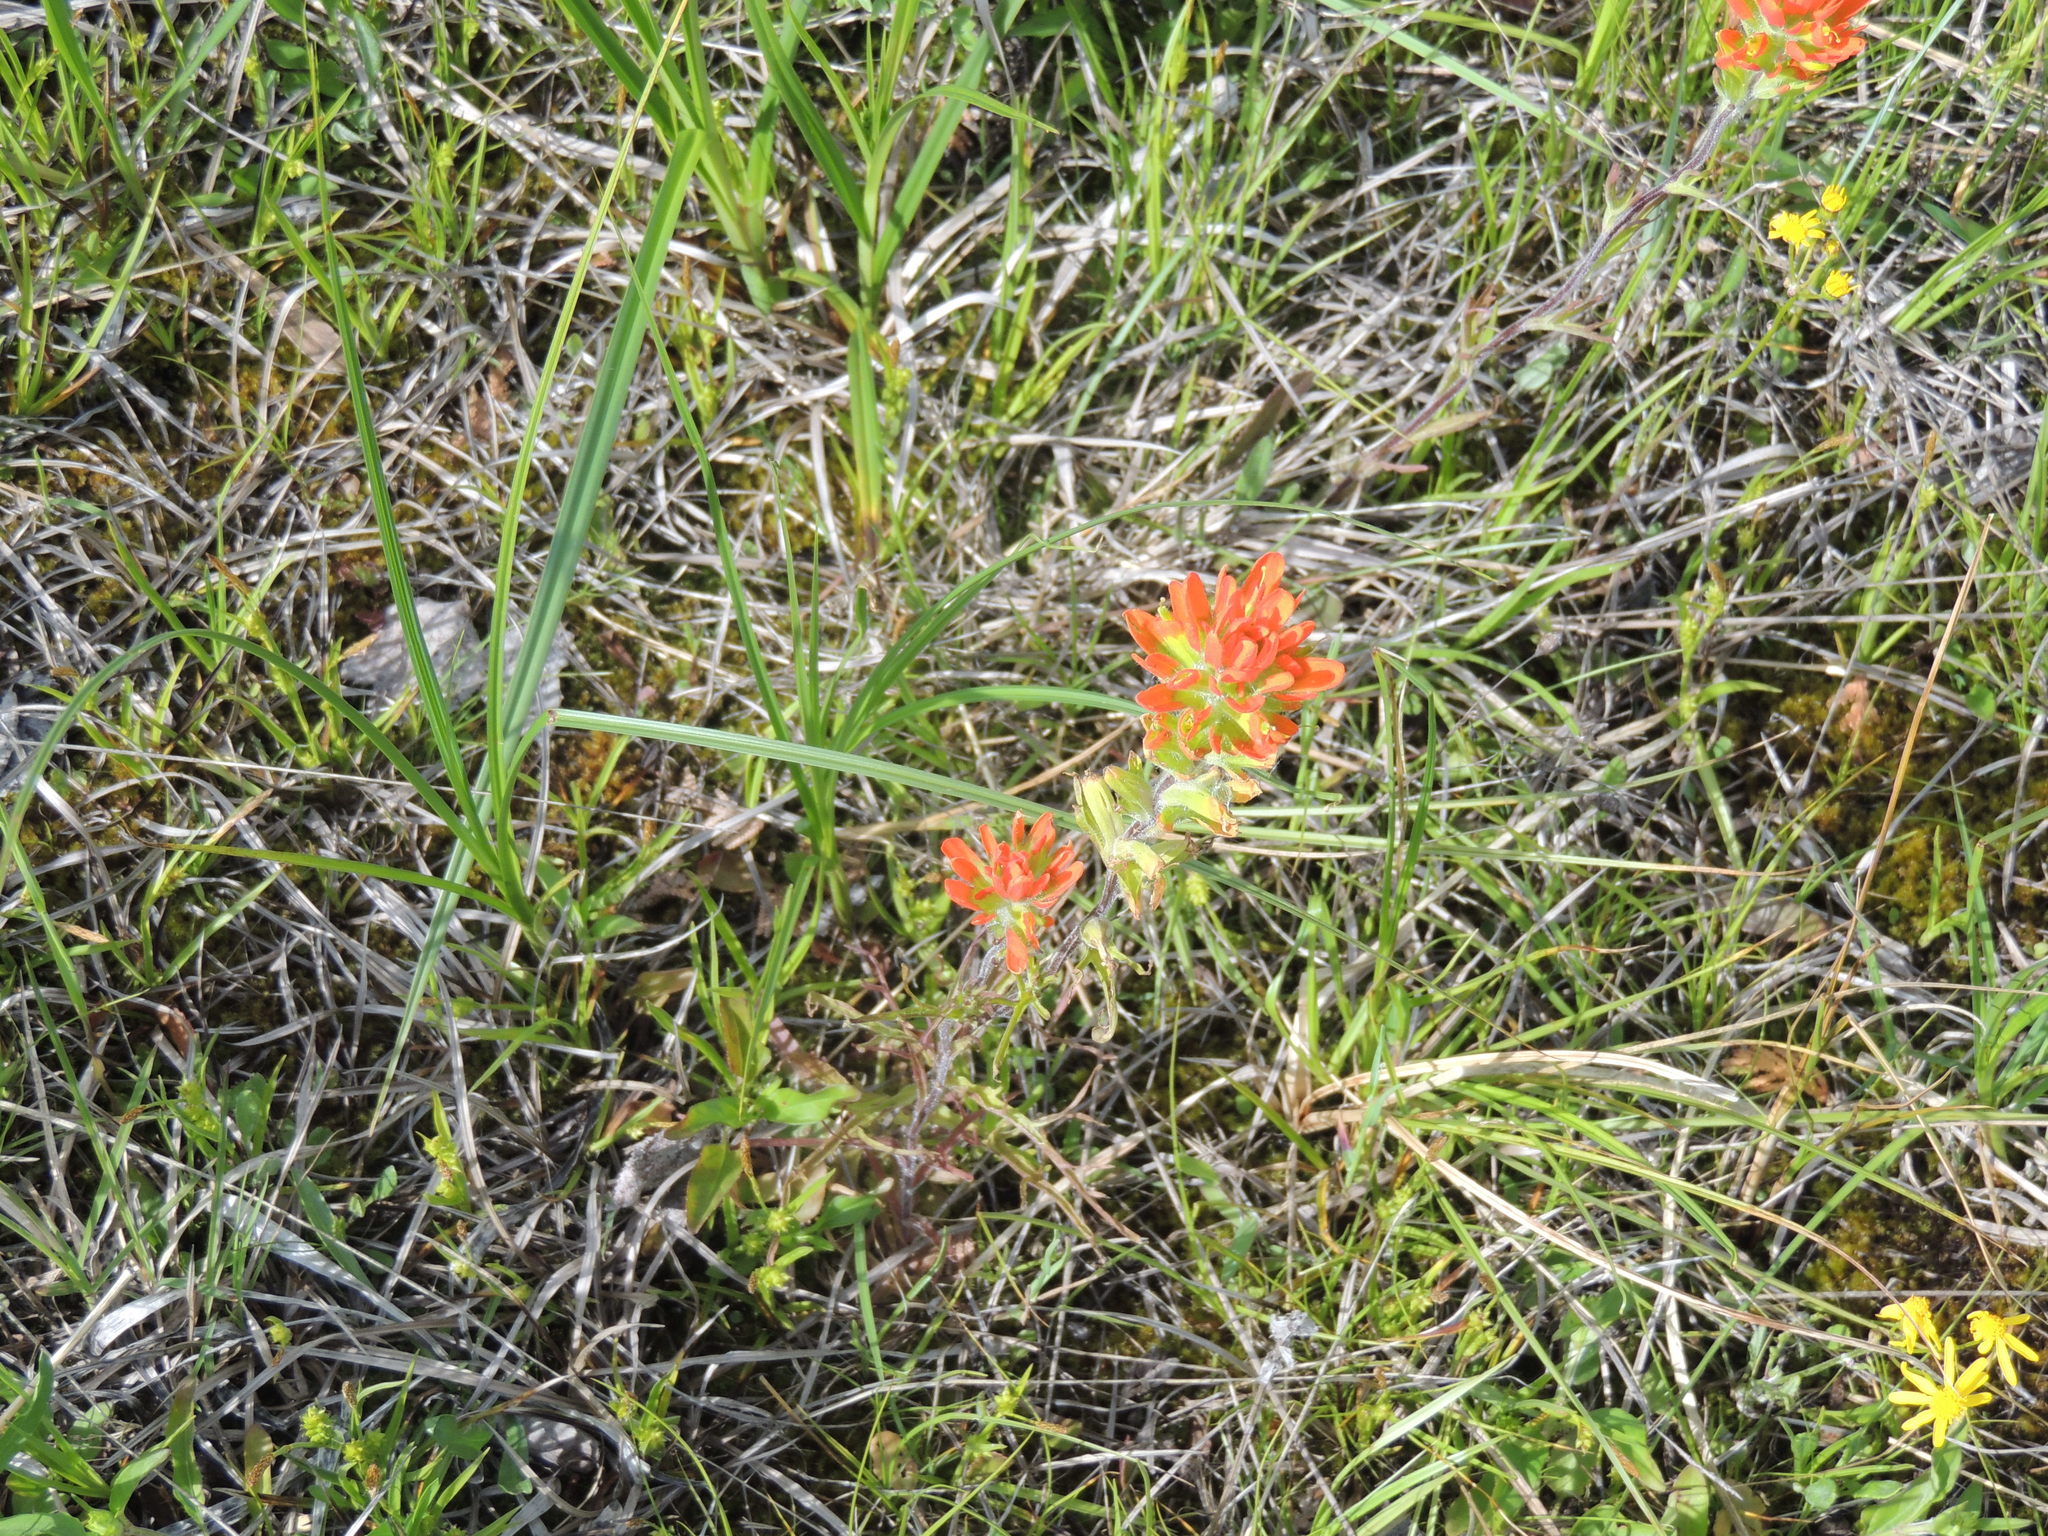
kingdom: Plantae
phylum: Tracheophyta
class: Magnoliopsida
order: Lamiales
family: Orobanchaceae
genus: Castilleja
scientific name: Castilleja coccinea
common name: Scarlet paintbrush
